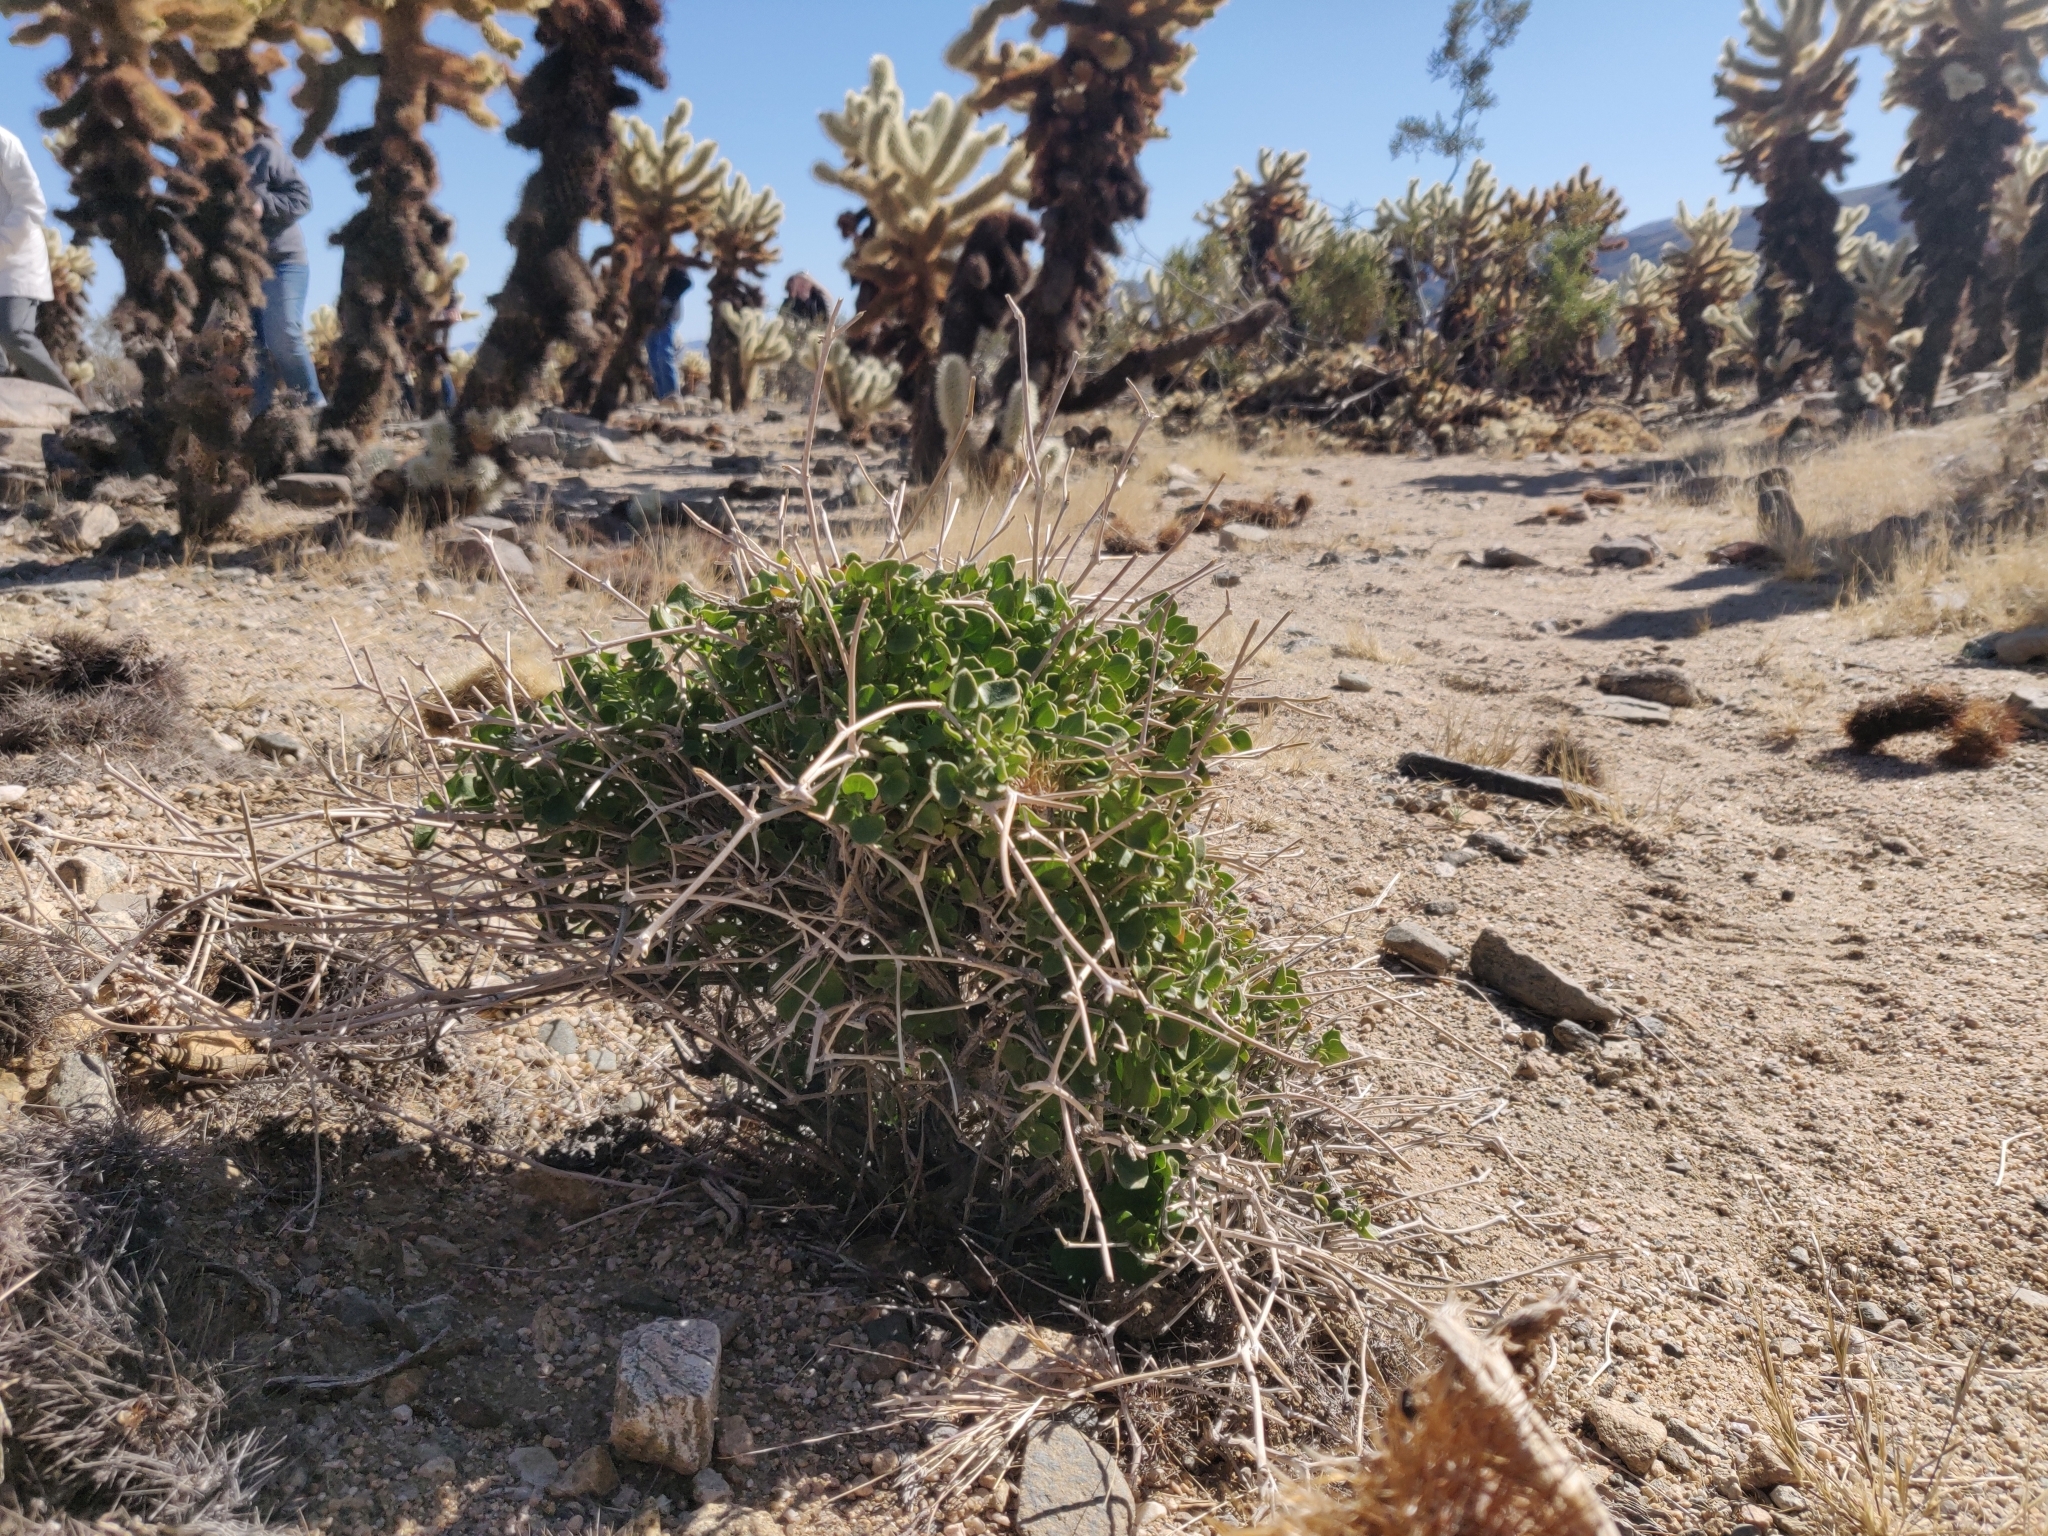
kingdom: Plantae
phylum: Tracheophyta
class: Magnoliopsida
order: Caryophyllales
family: Nyctaginaceae
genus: Mirabilis
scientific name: Mirabilis laevis
